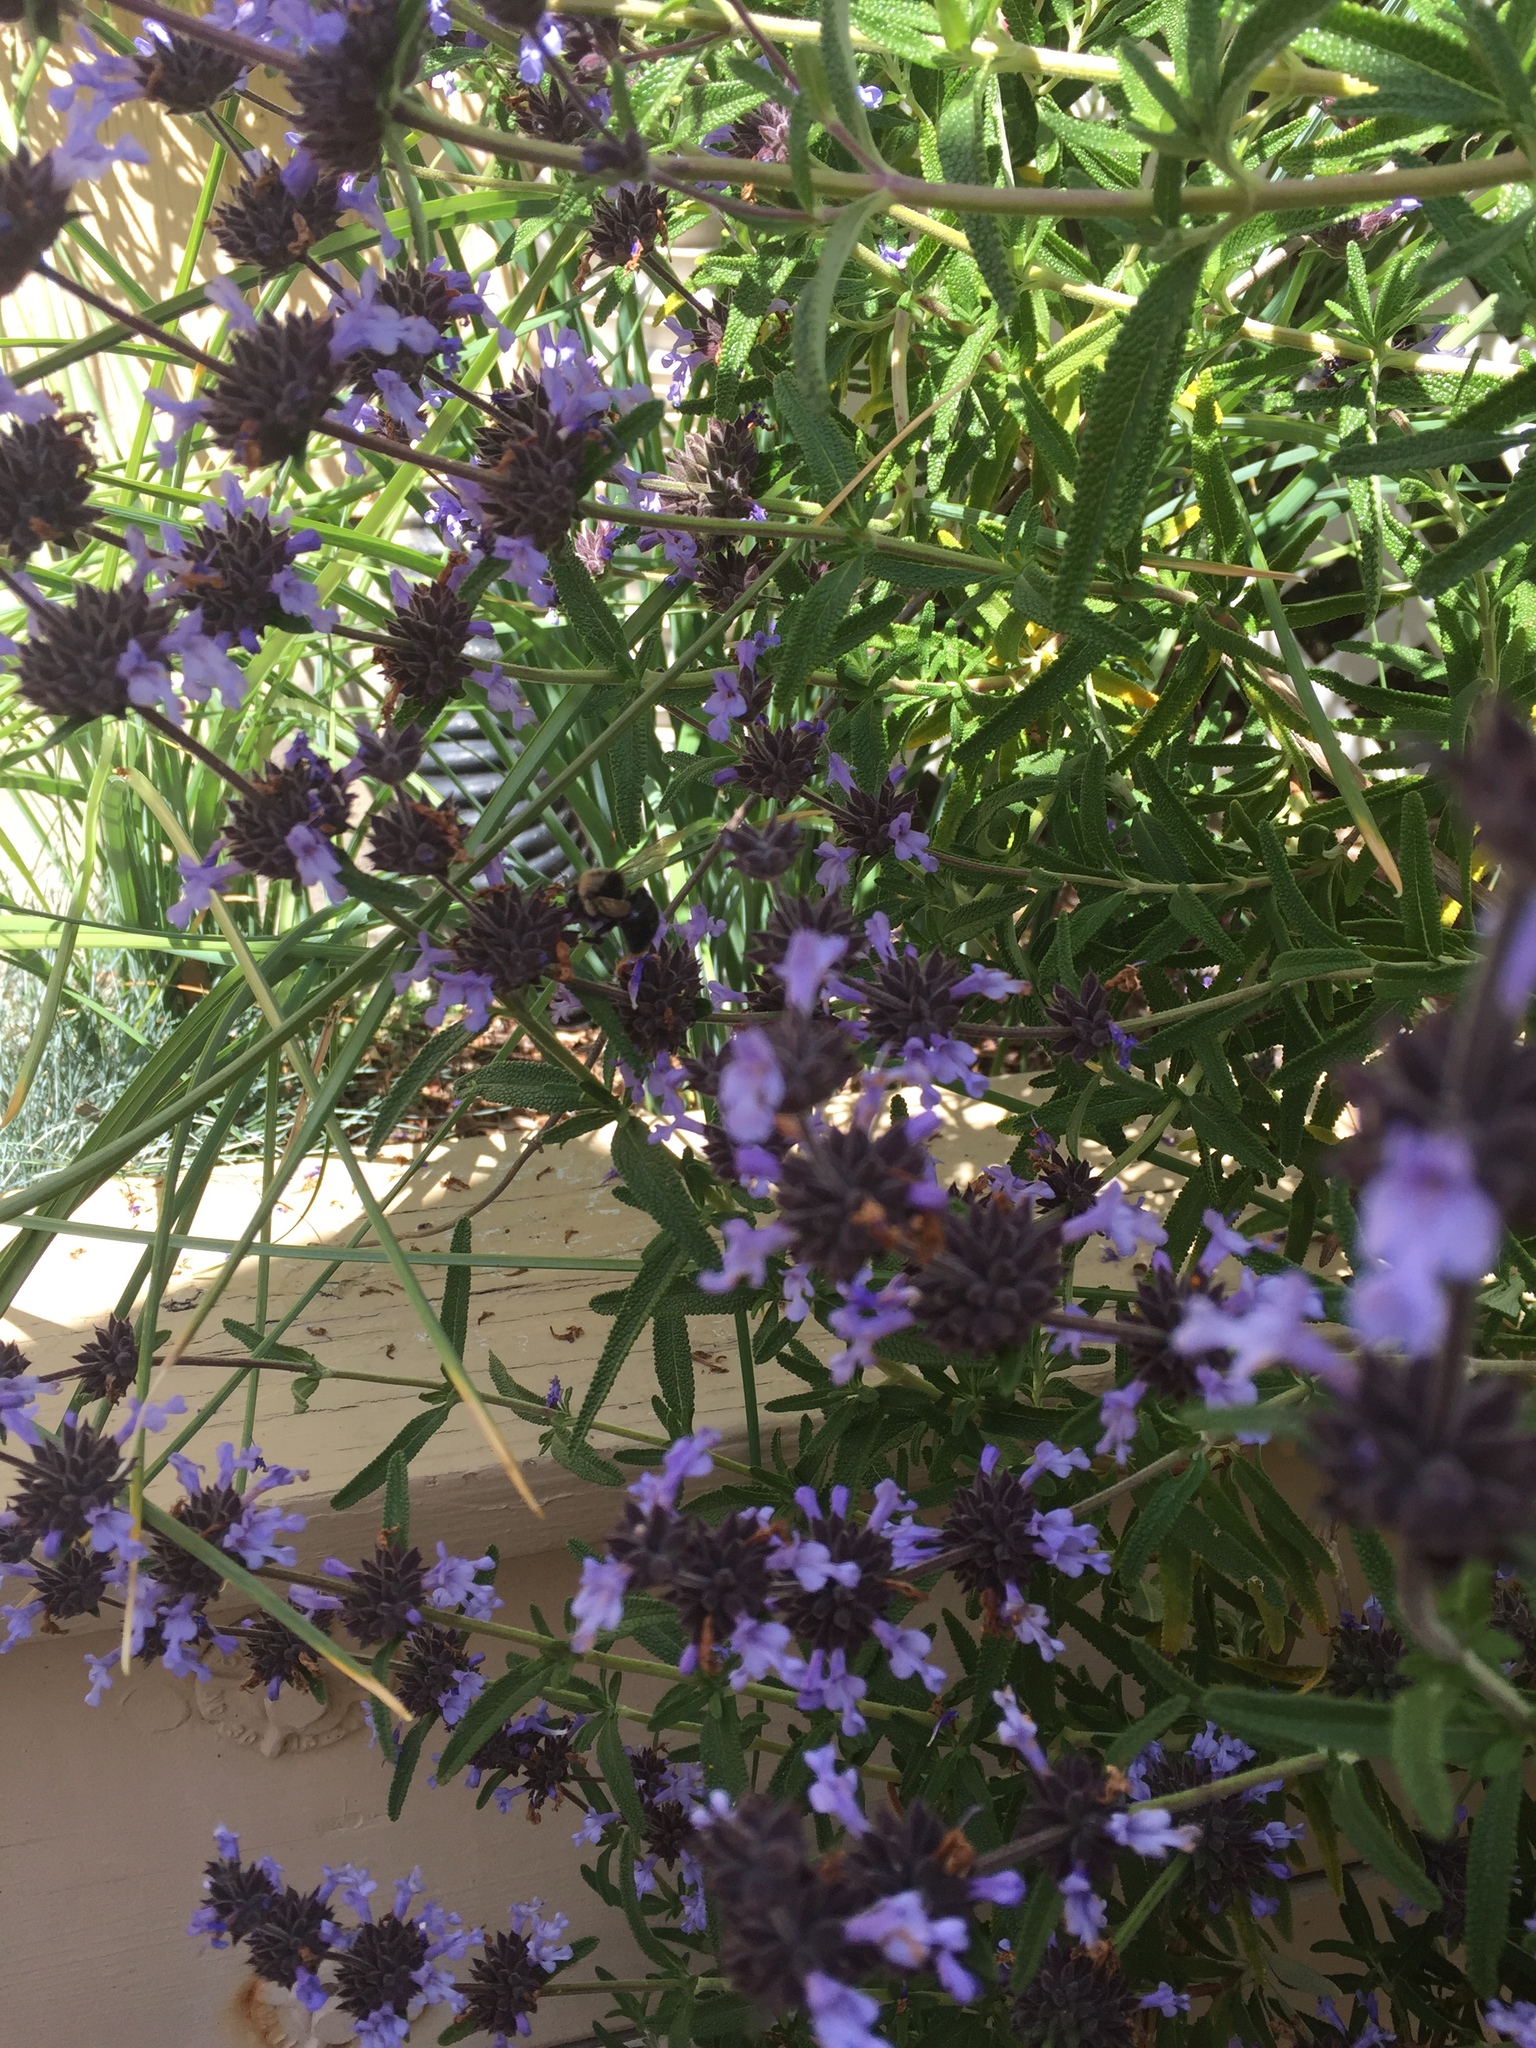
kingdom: Animalia
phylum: Arthropoda
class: Insecta
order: Hymenoptera
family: Apidae
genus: Xylocopa
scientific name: Xylocopa tabaniformis
